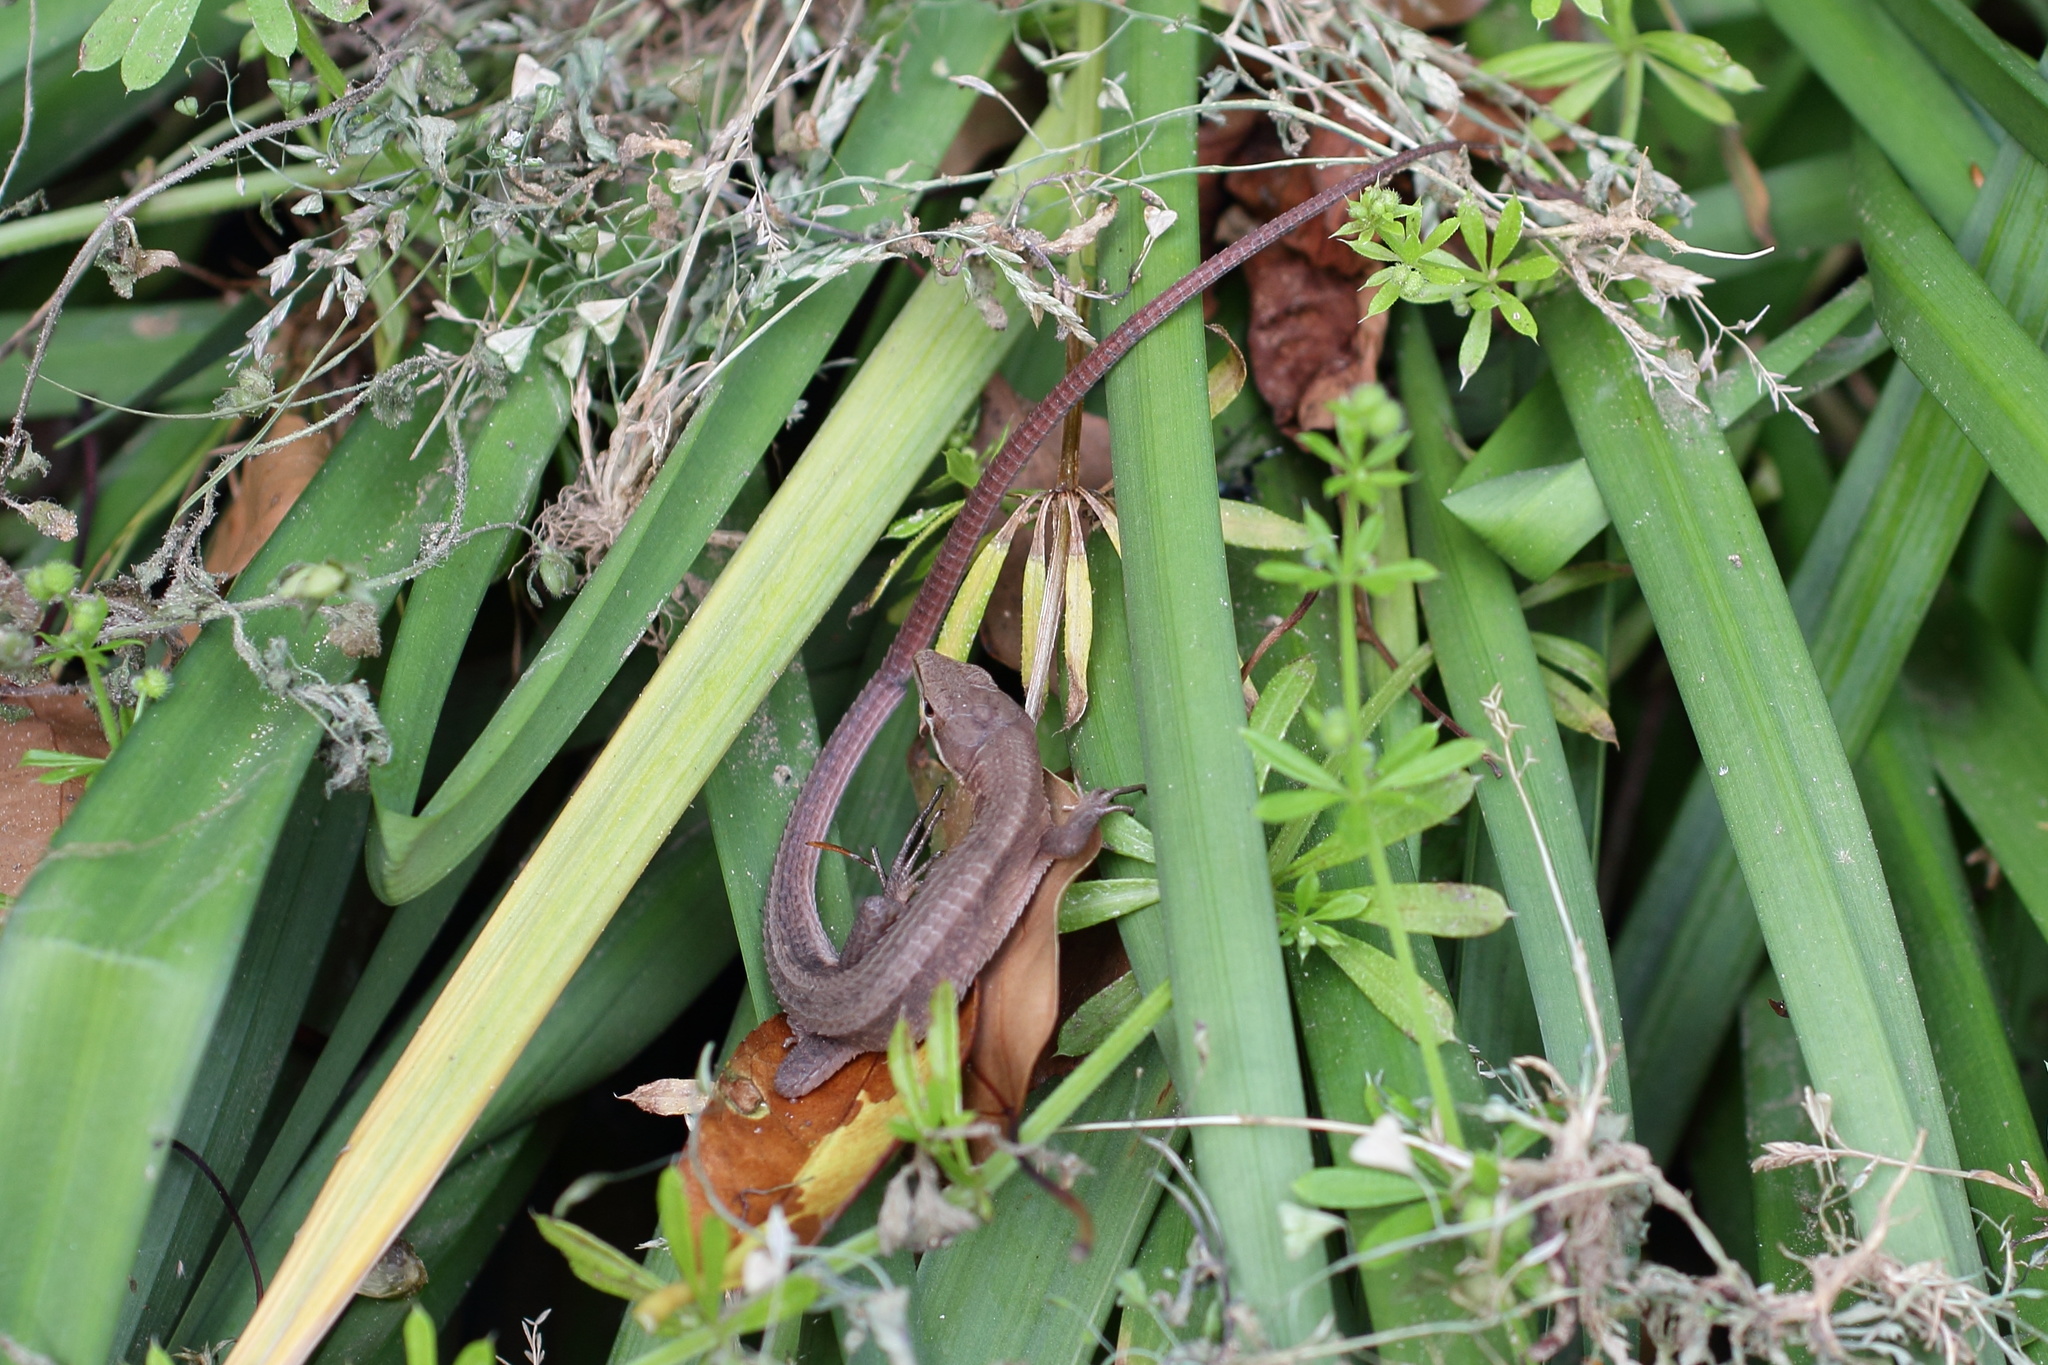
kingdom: Animalia
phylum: Chordata
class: Squamata
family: Lacertidae
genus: Takydromus
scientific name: Takydromus tachydromoides
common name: Japanese grass lizard
